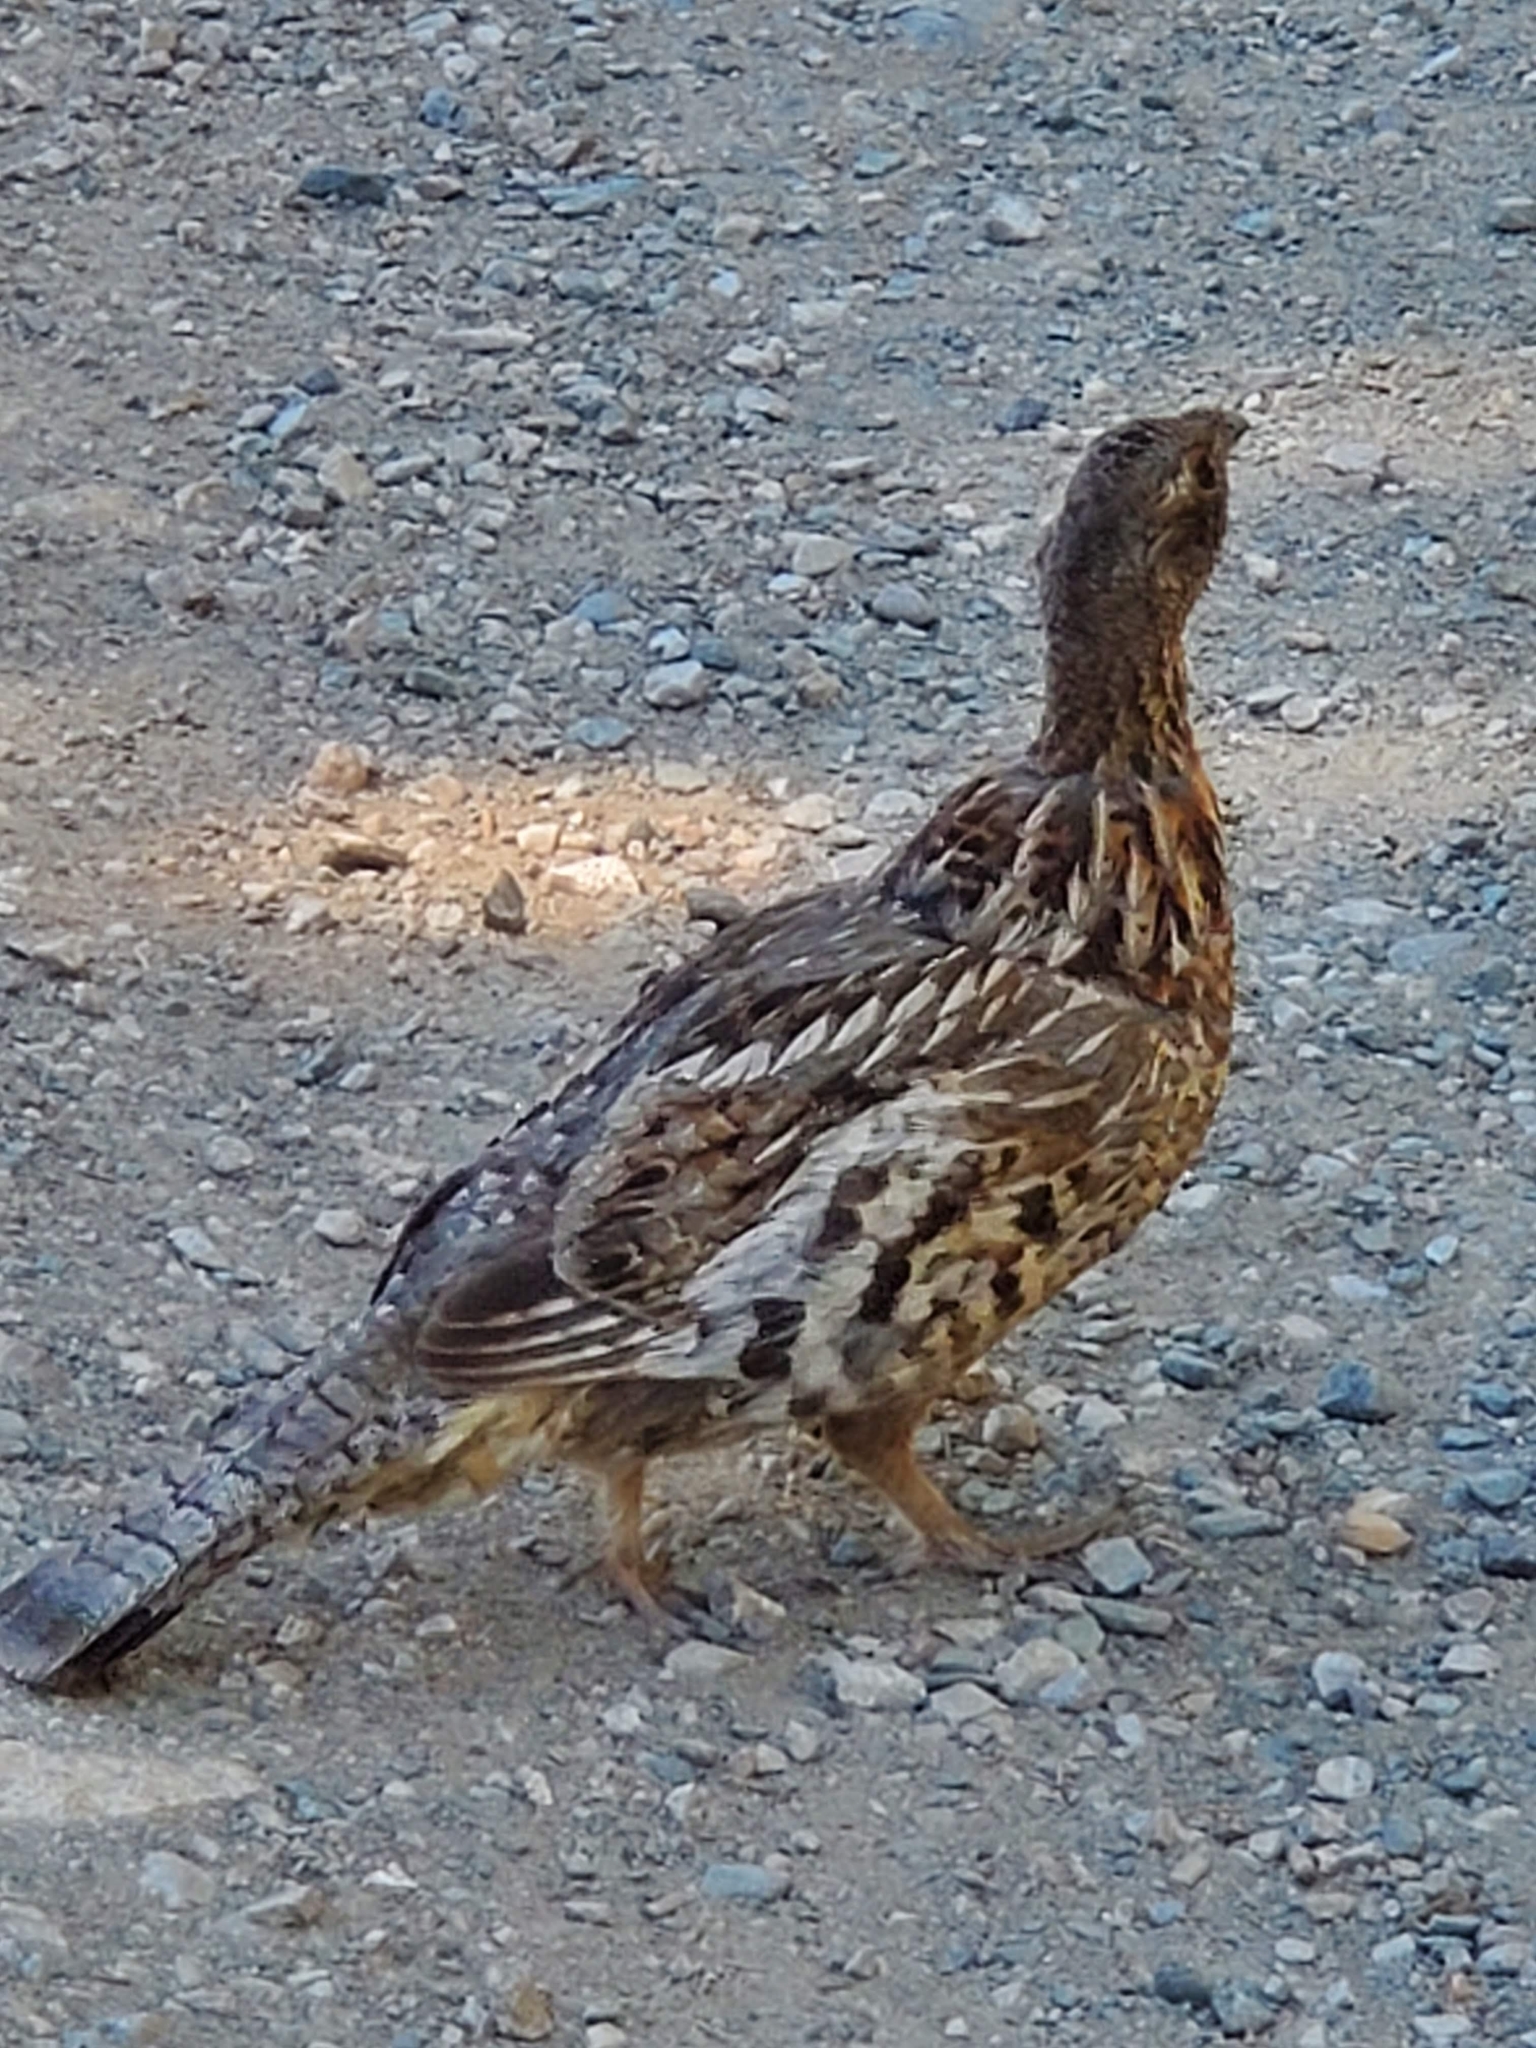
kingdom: Animalia
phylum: Chordata
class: Aves
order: Galliformes
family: Phasianidae
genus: Bonasa
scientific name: Bonasa umbellus
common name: Ruffed grouse
